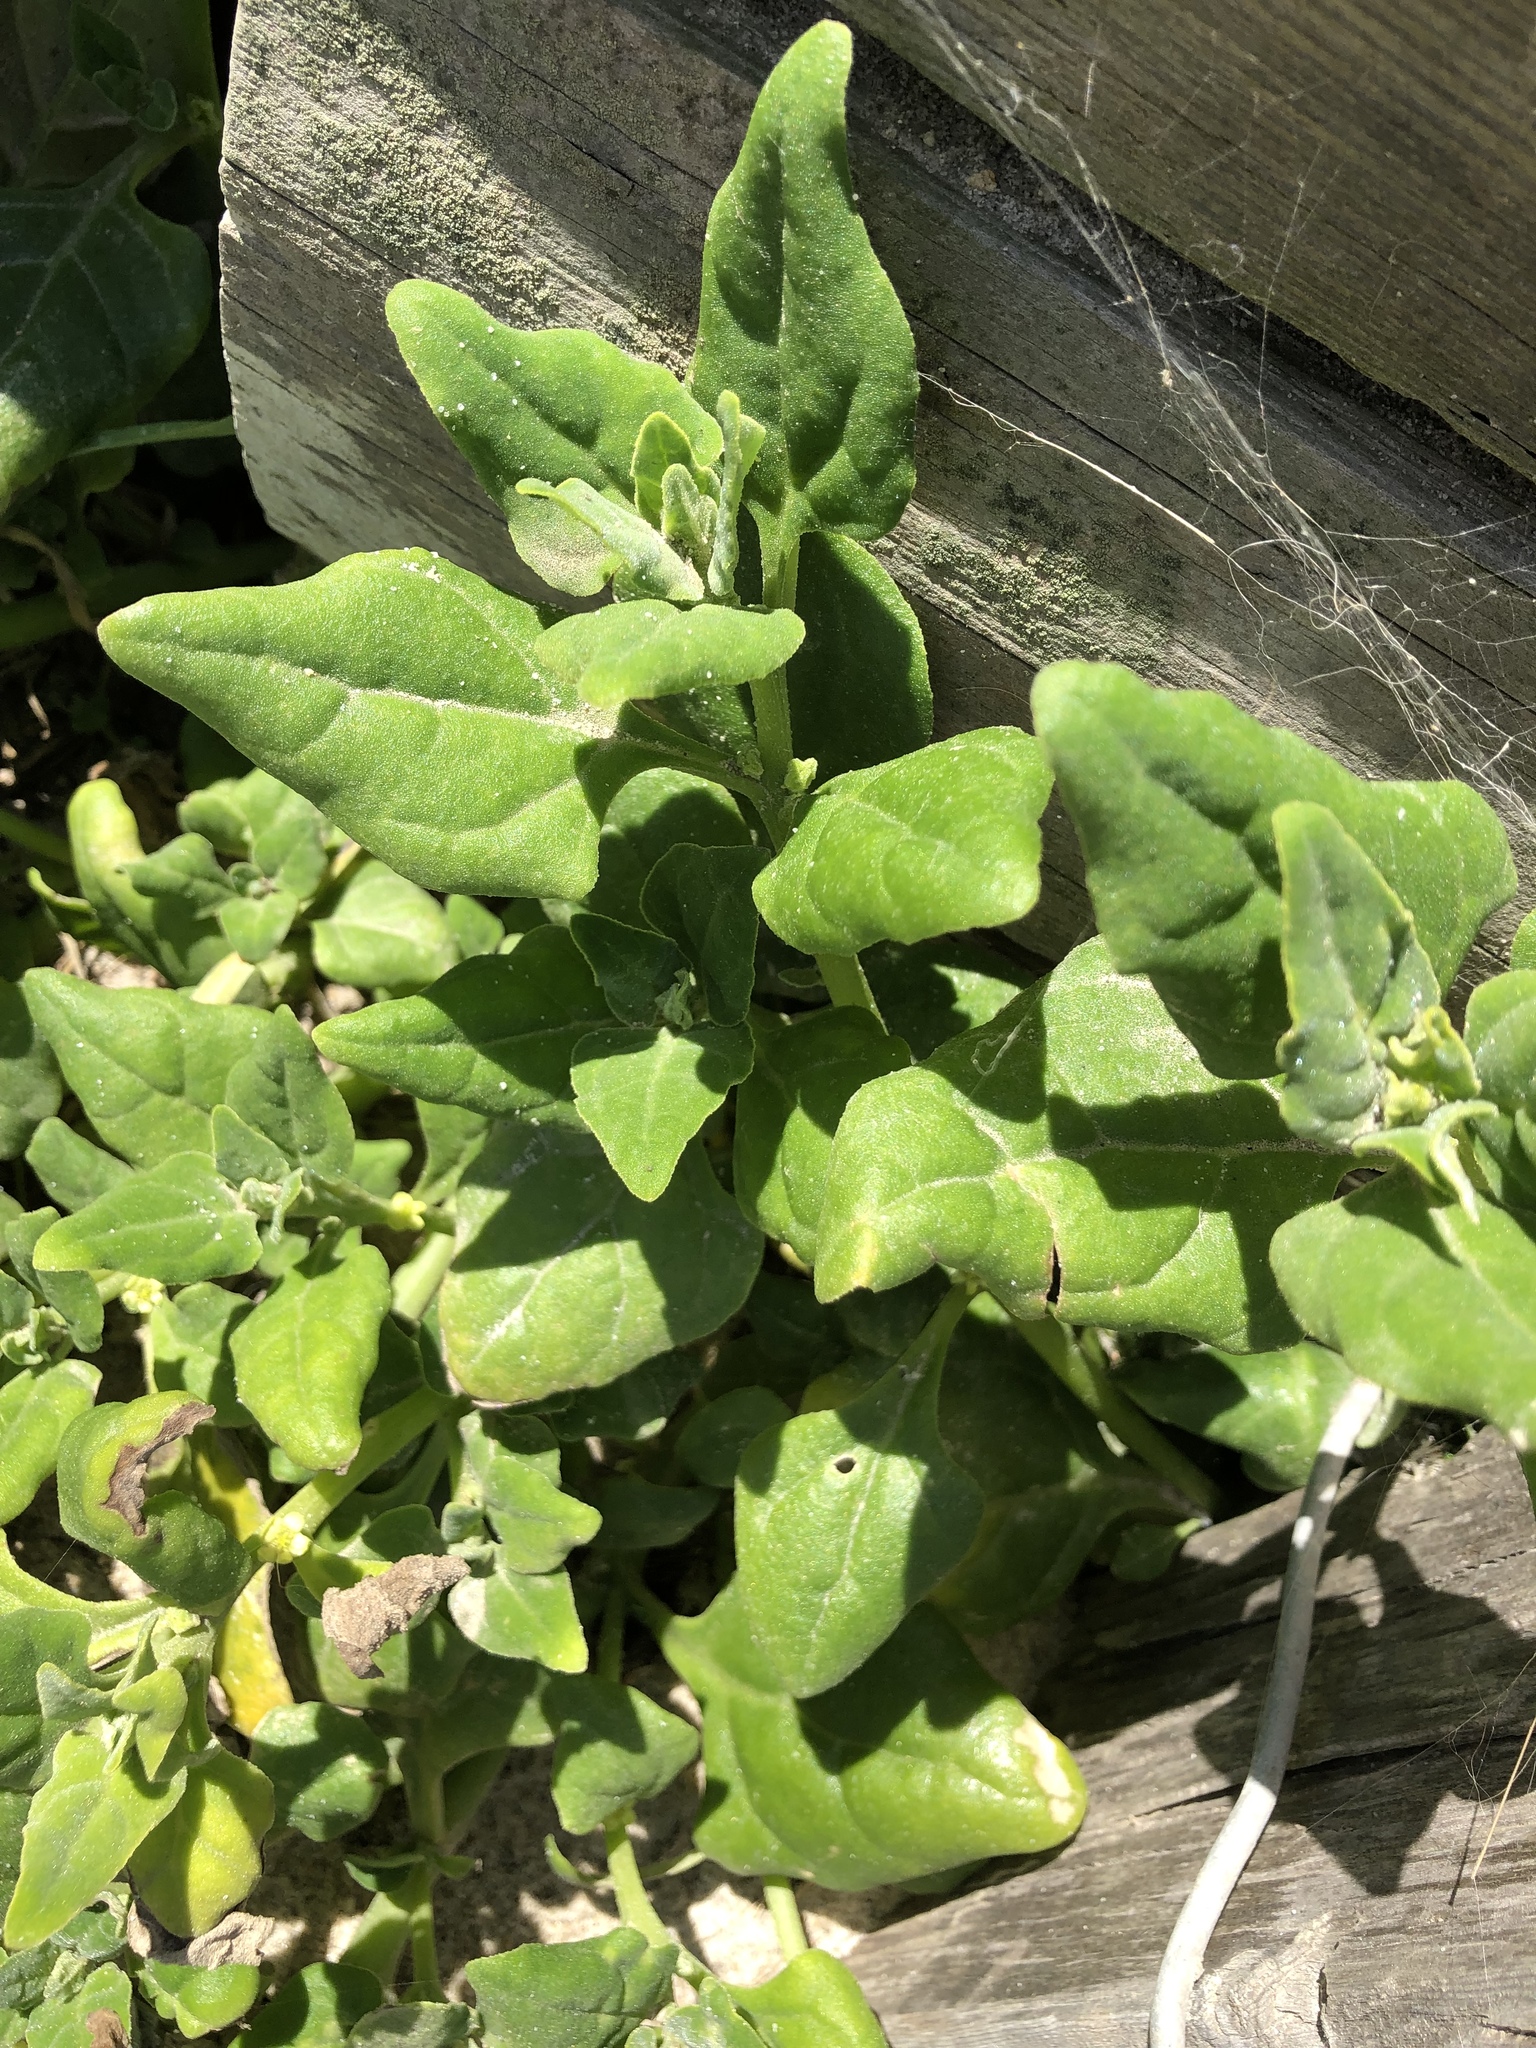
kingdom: Plantae
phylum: Tracheophyta
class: Magnoliopsida
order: Caryophyllales
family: Aizoaceae
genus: Tetragonia
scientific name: Tetragonia tetragonoides
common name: New zealand-spinach
